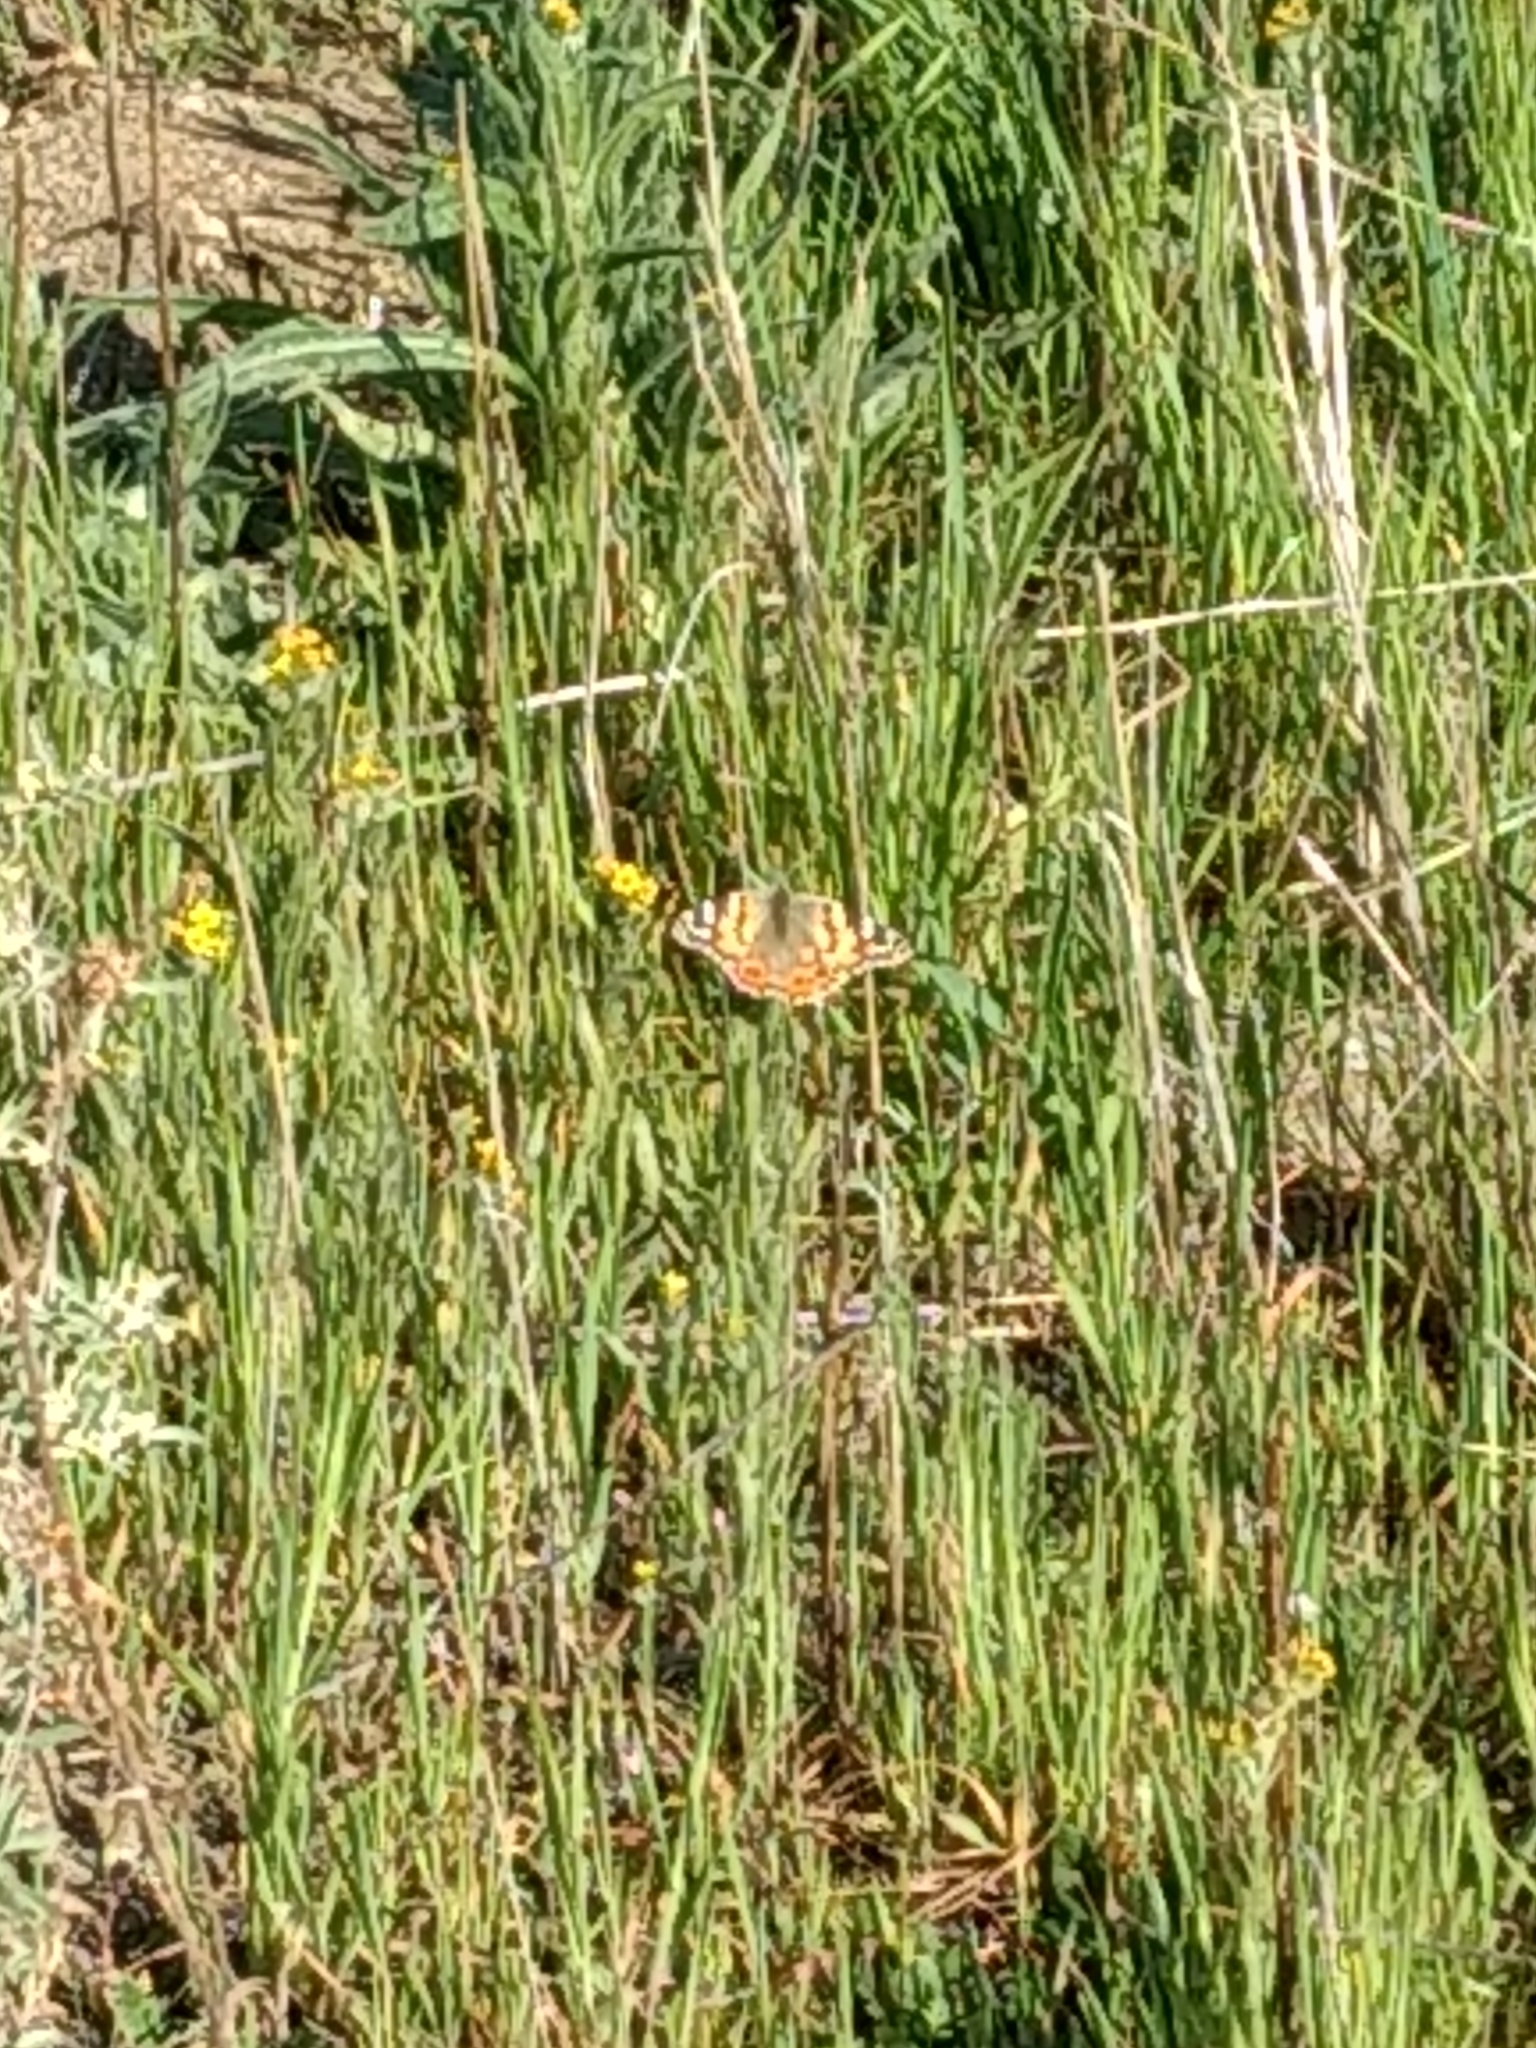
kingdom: Animalia
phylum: Arthropoda
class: Insecta
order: Lepidoptera
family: Nymphalidae
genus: Vanessa
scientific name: Vanessa cardui
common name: Painted lady
